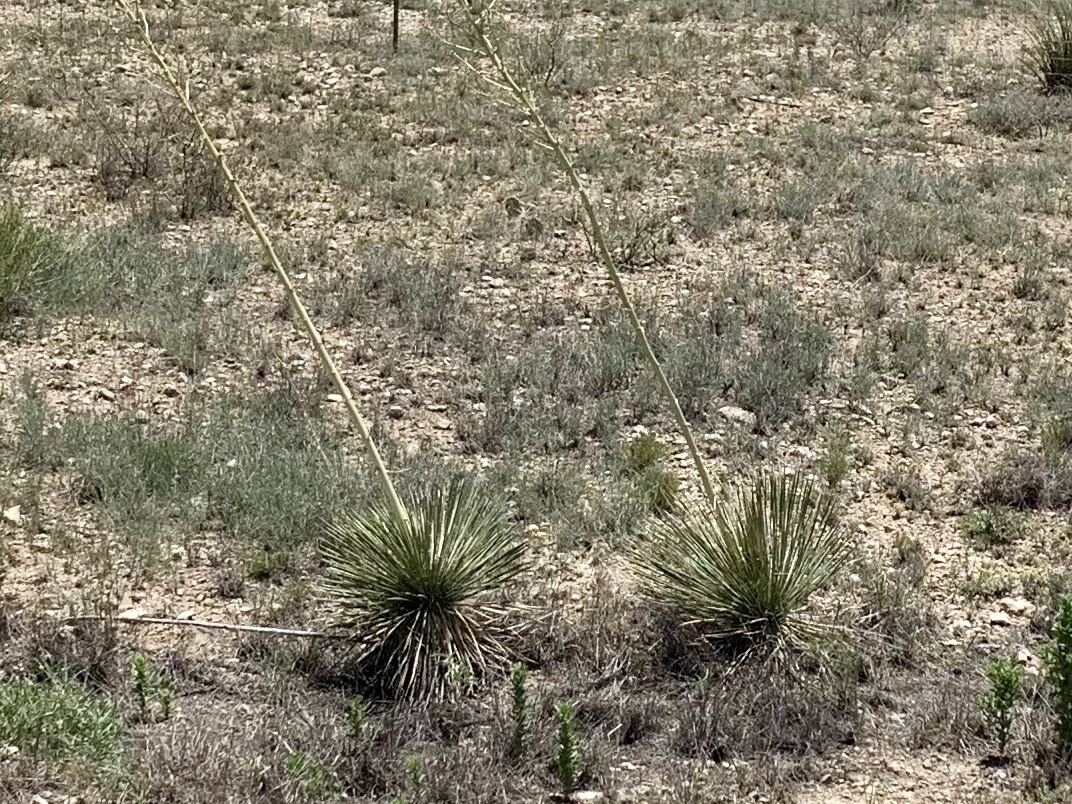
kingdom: Plantae
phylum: Tracheophyta
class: Liliopsida
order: Asparagales
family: Asparagaceae
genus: Yucca
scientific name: Yucca elata
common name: Palmella
